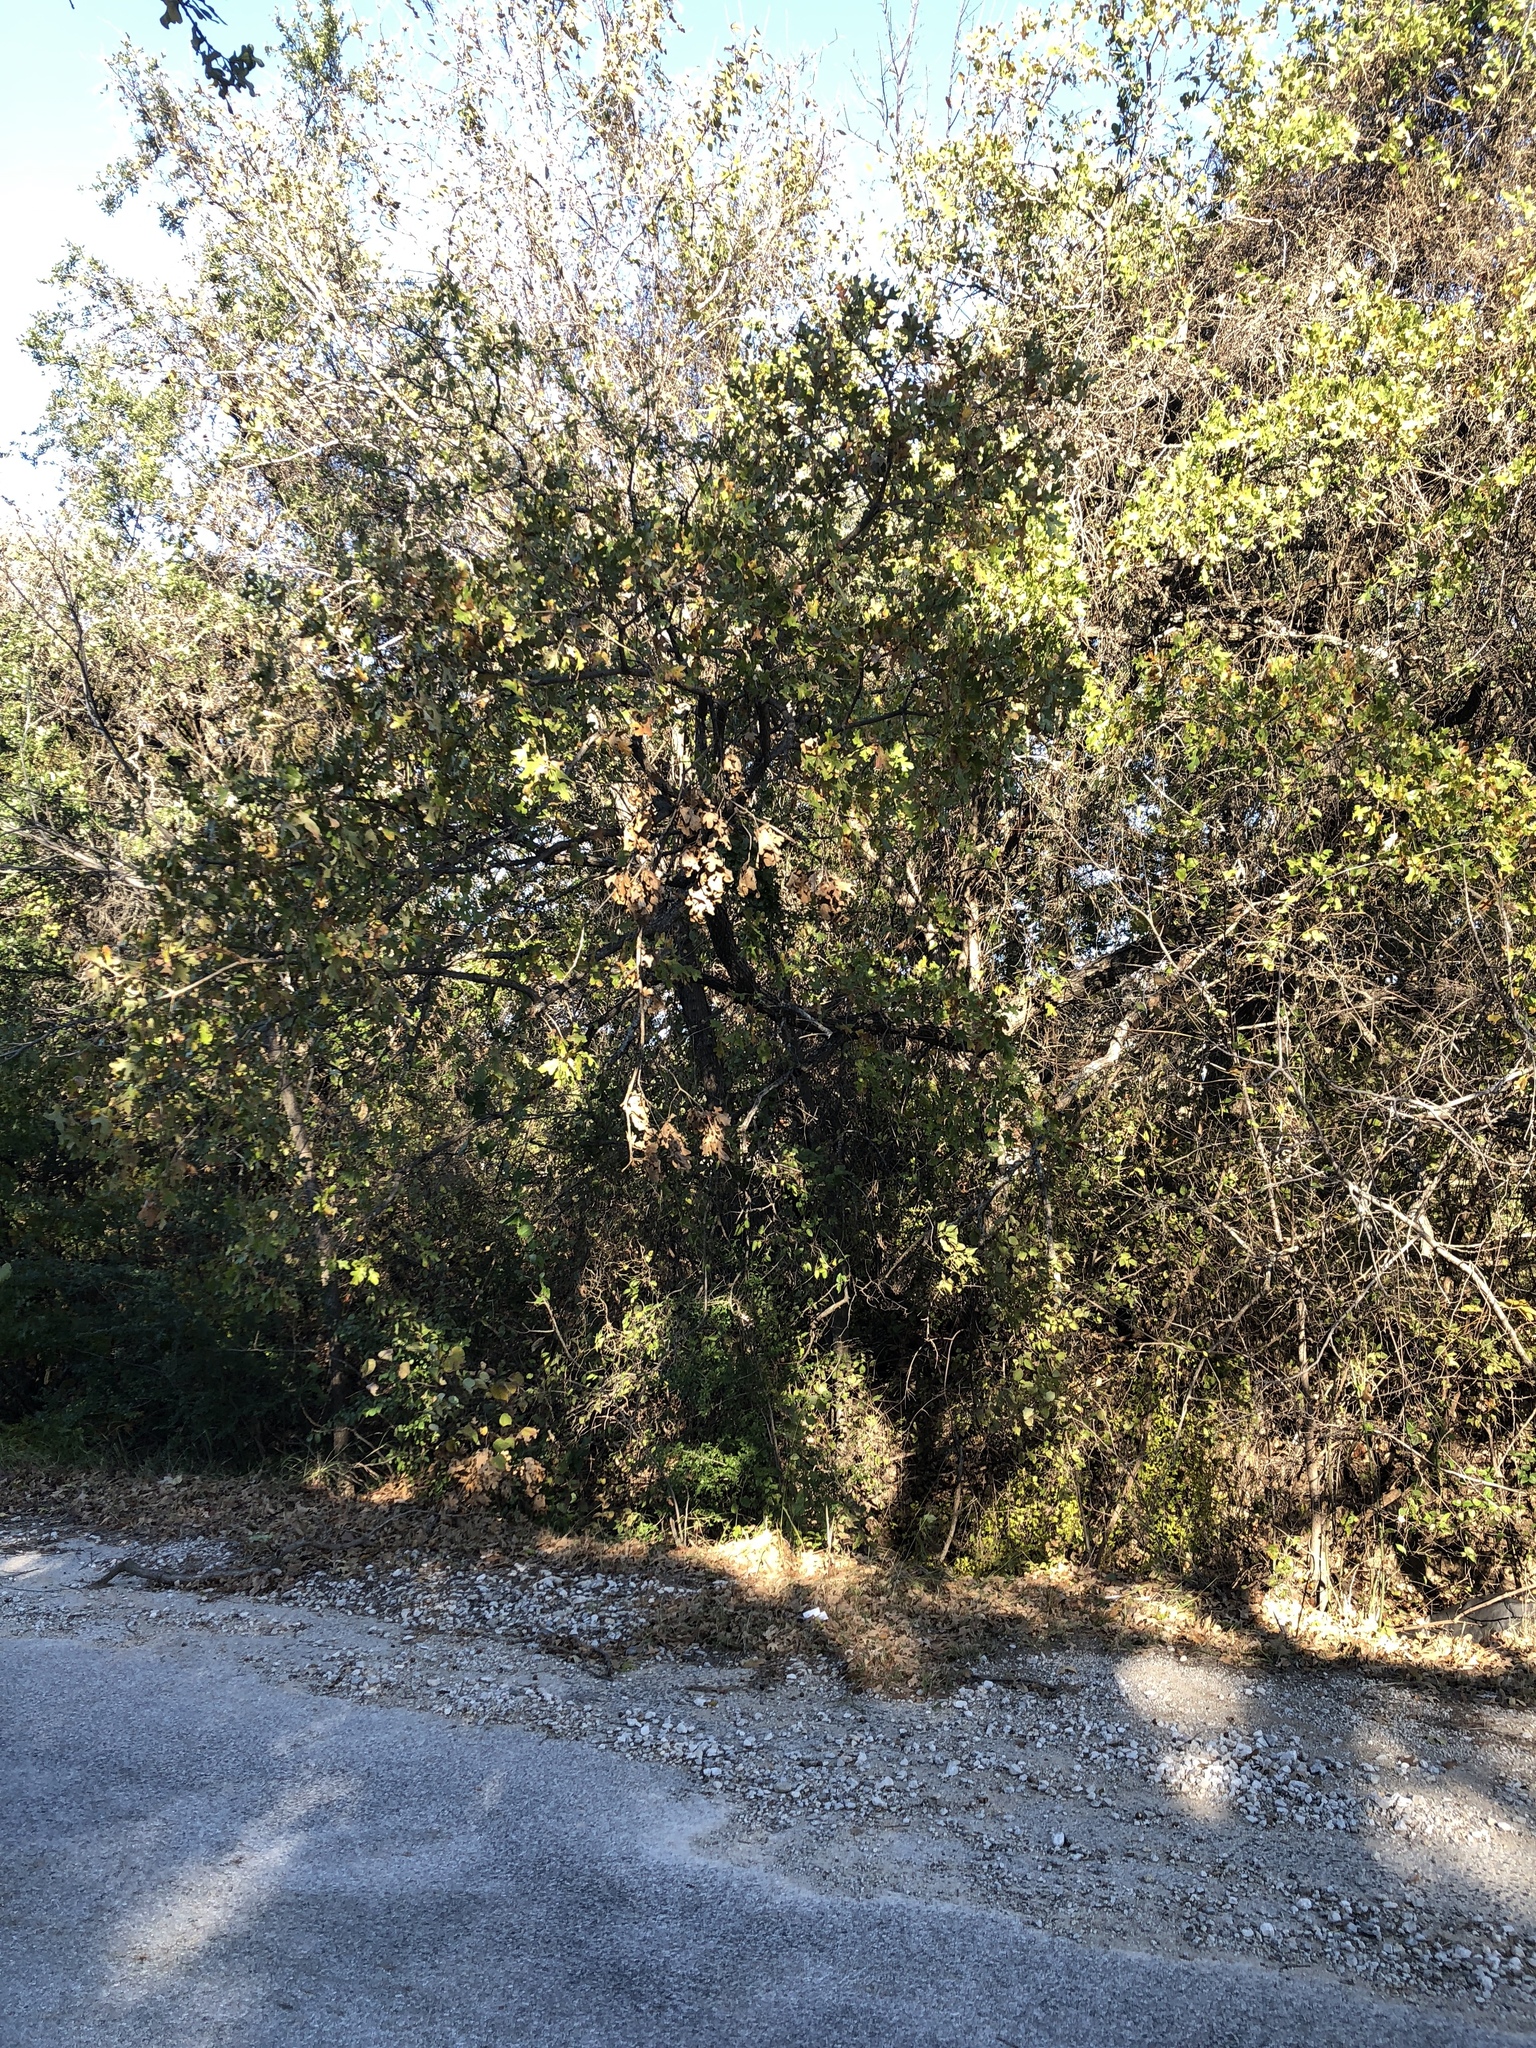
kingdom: Plantae
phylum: Tracheophyta
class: Magnoliopsida
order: Fagales
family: Fagaceae
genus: Quercus
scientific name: Quercus stellata
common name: Post oak
